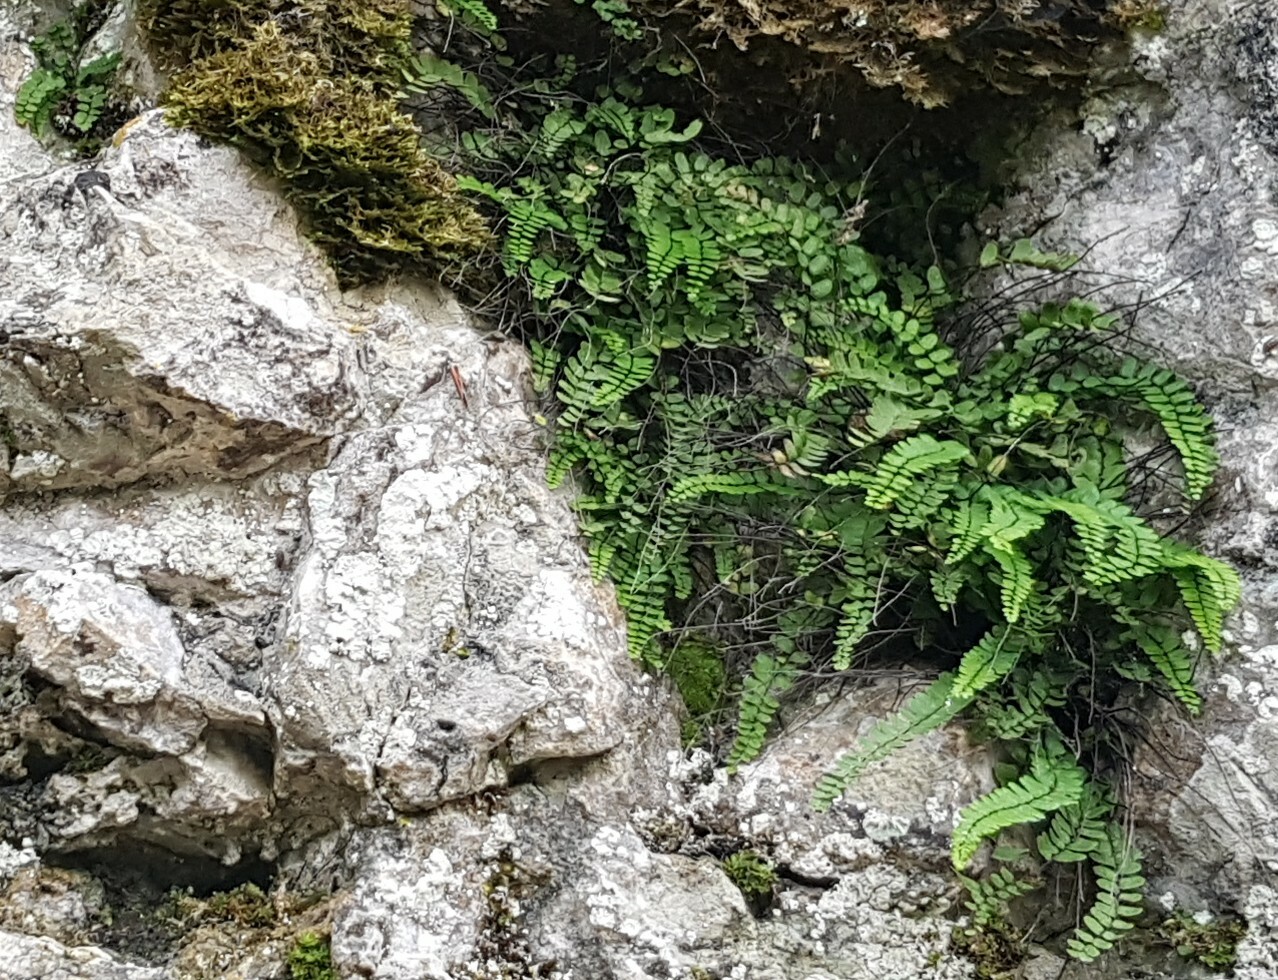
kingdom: Plantae
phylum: Tracheophyta
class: Polypodiopsida
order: Polypodiales
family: Aspleniaceae
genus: Asplenium
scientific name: Asplenium trichomanes
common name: Maidenhair spleenwort
